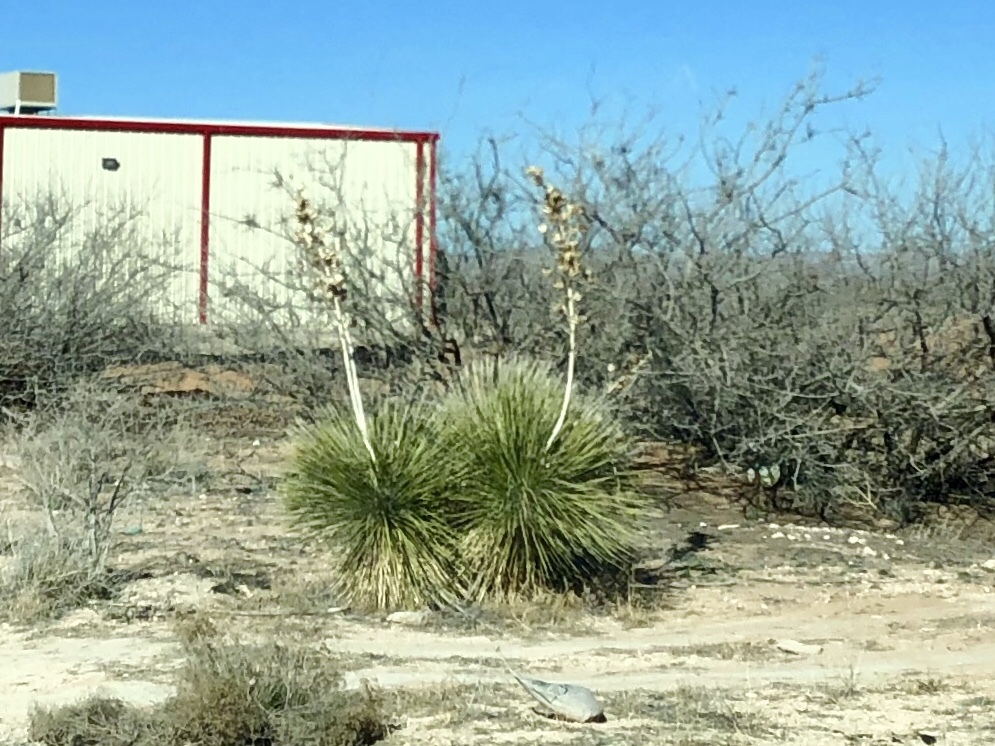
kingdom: Plantae
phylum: Tracheophyta
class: Liliopsida
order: Asparagales
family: Asparagaceae
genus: Yucca
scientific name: Yucca elata
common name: Palmella
